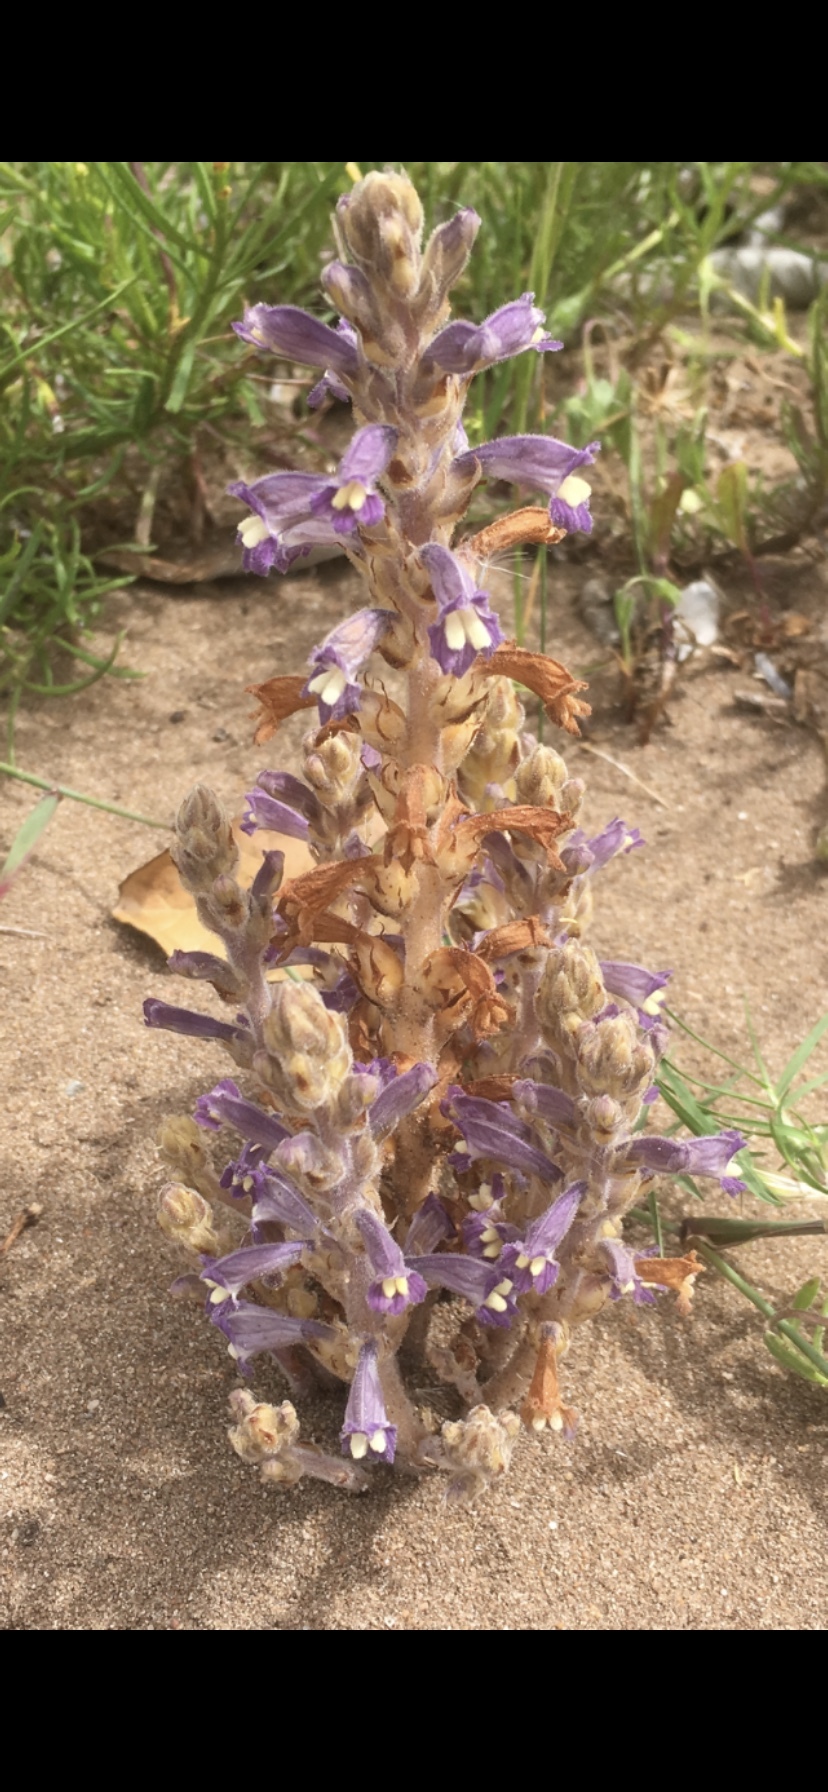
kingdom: Plantae
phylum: Tracheophyta
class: Magnoliopsida
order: Lamiales
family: Orobanchaceae
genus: Phelipanche
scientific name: Phelipanche mutelii
